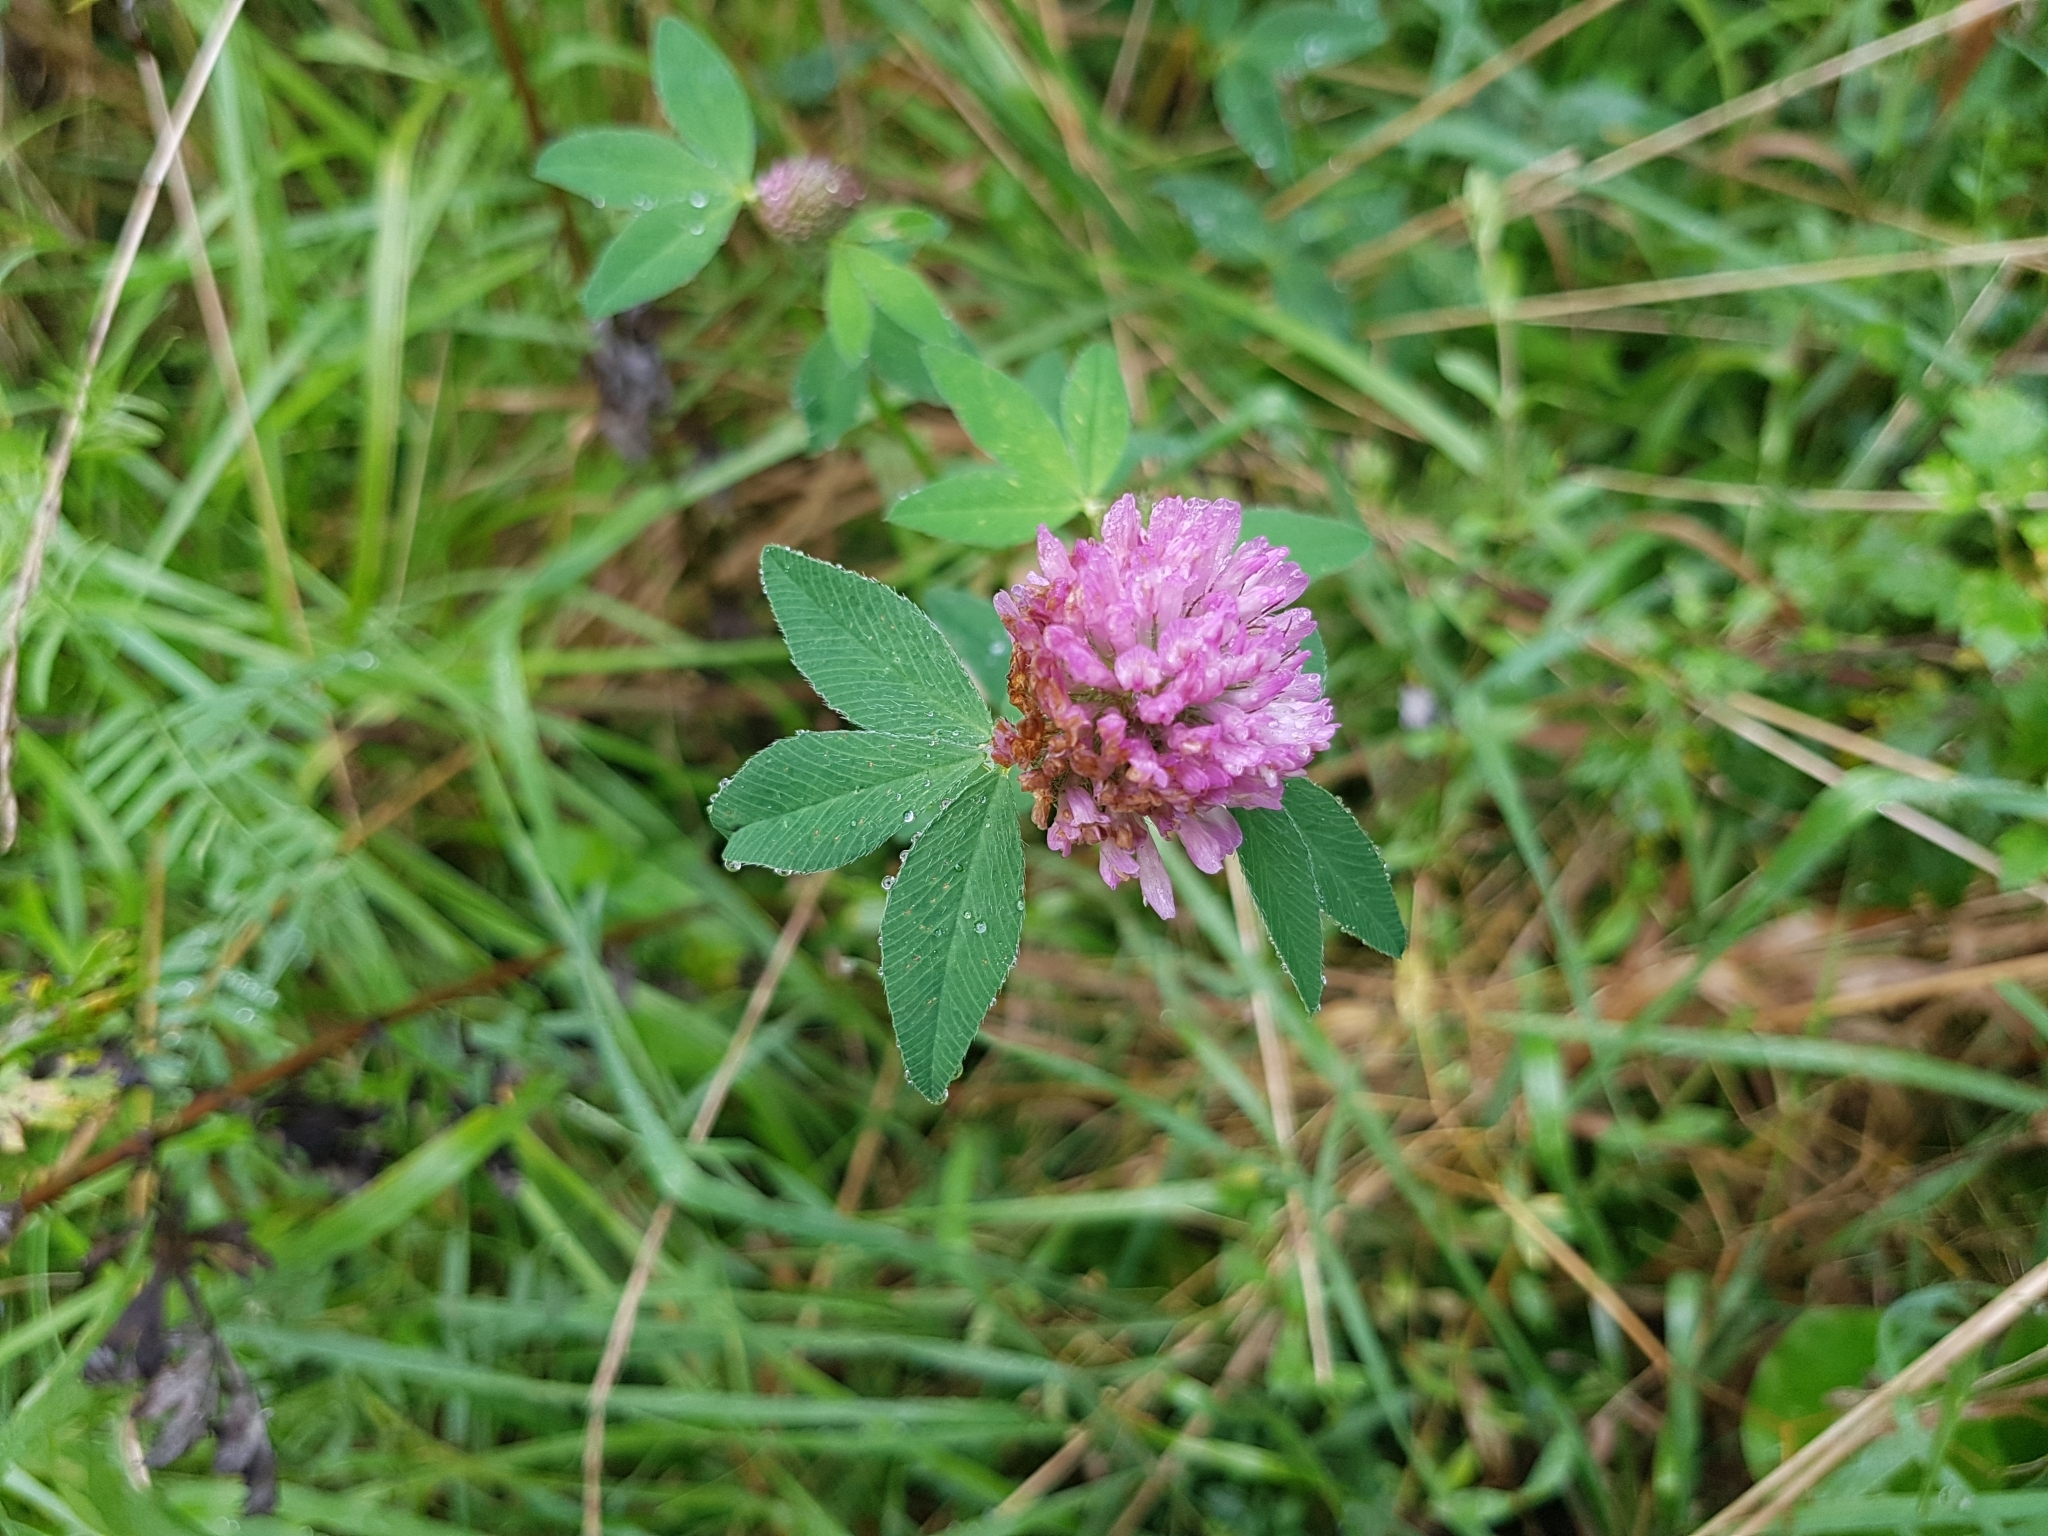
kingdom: Plantae
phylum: Tracheophyta
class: Magnoliopsida
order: Fabales
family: Fabaceae
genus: Trifolium
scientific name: Trifolium medium
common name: Zigzag clover
